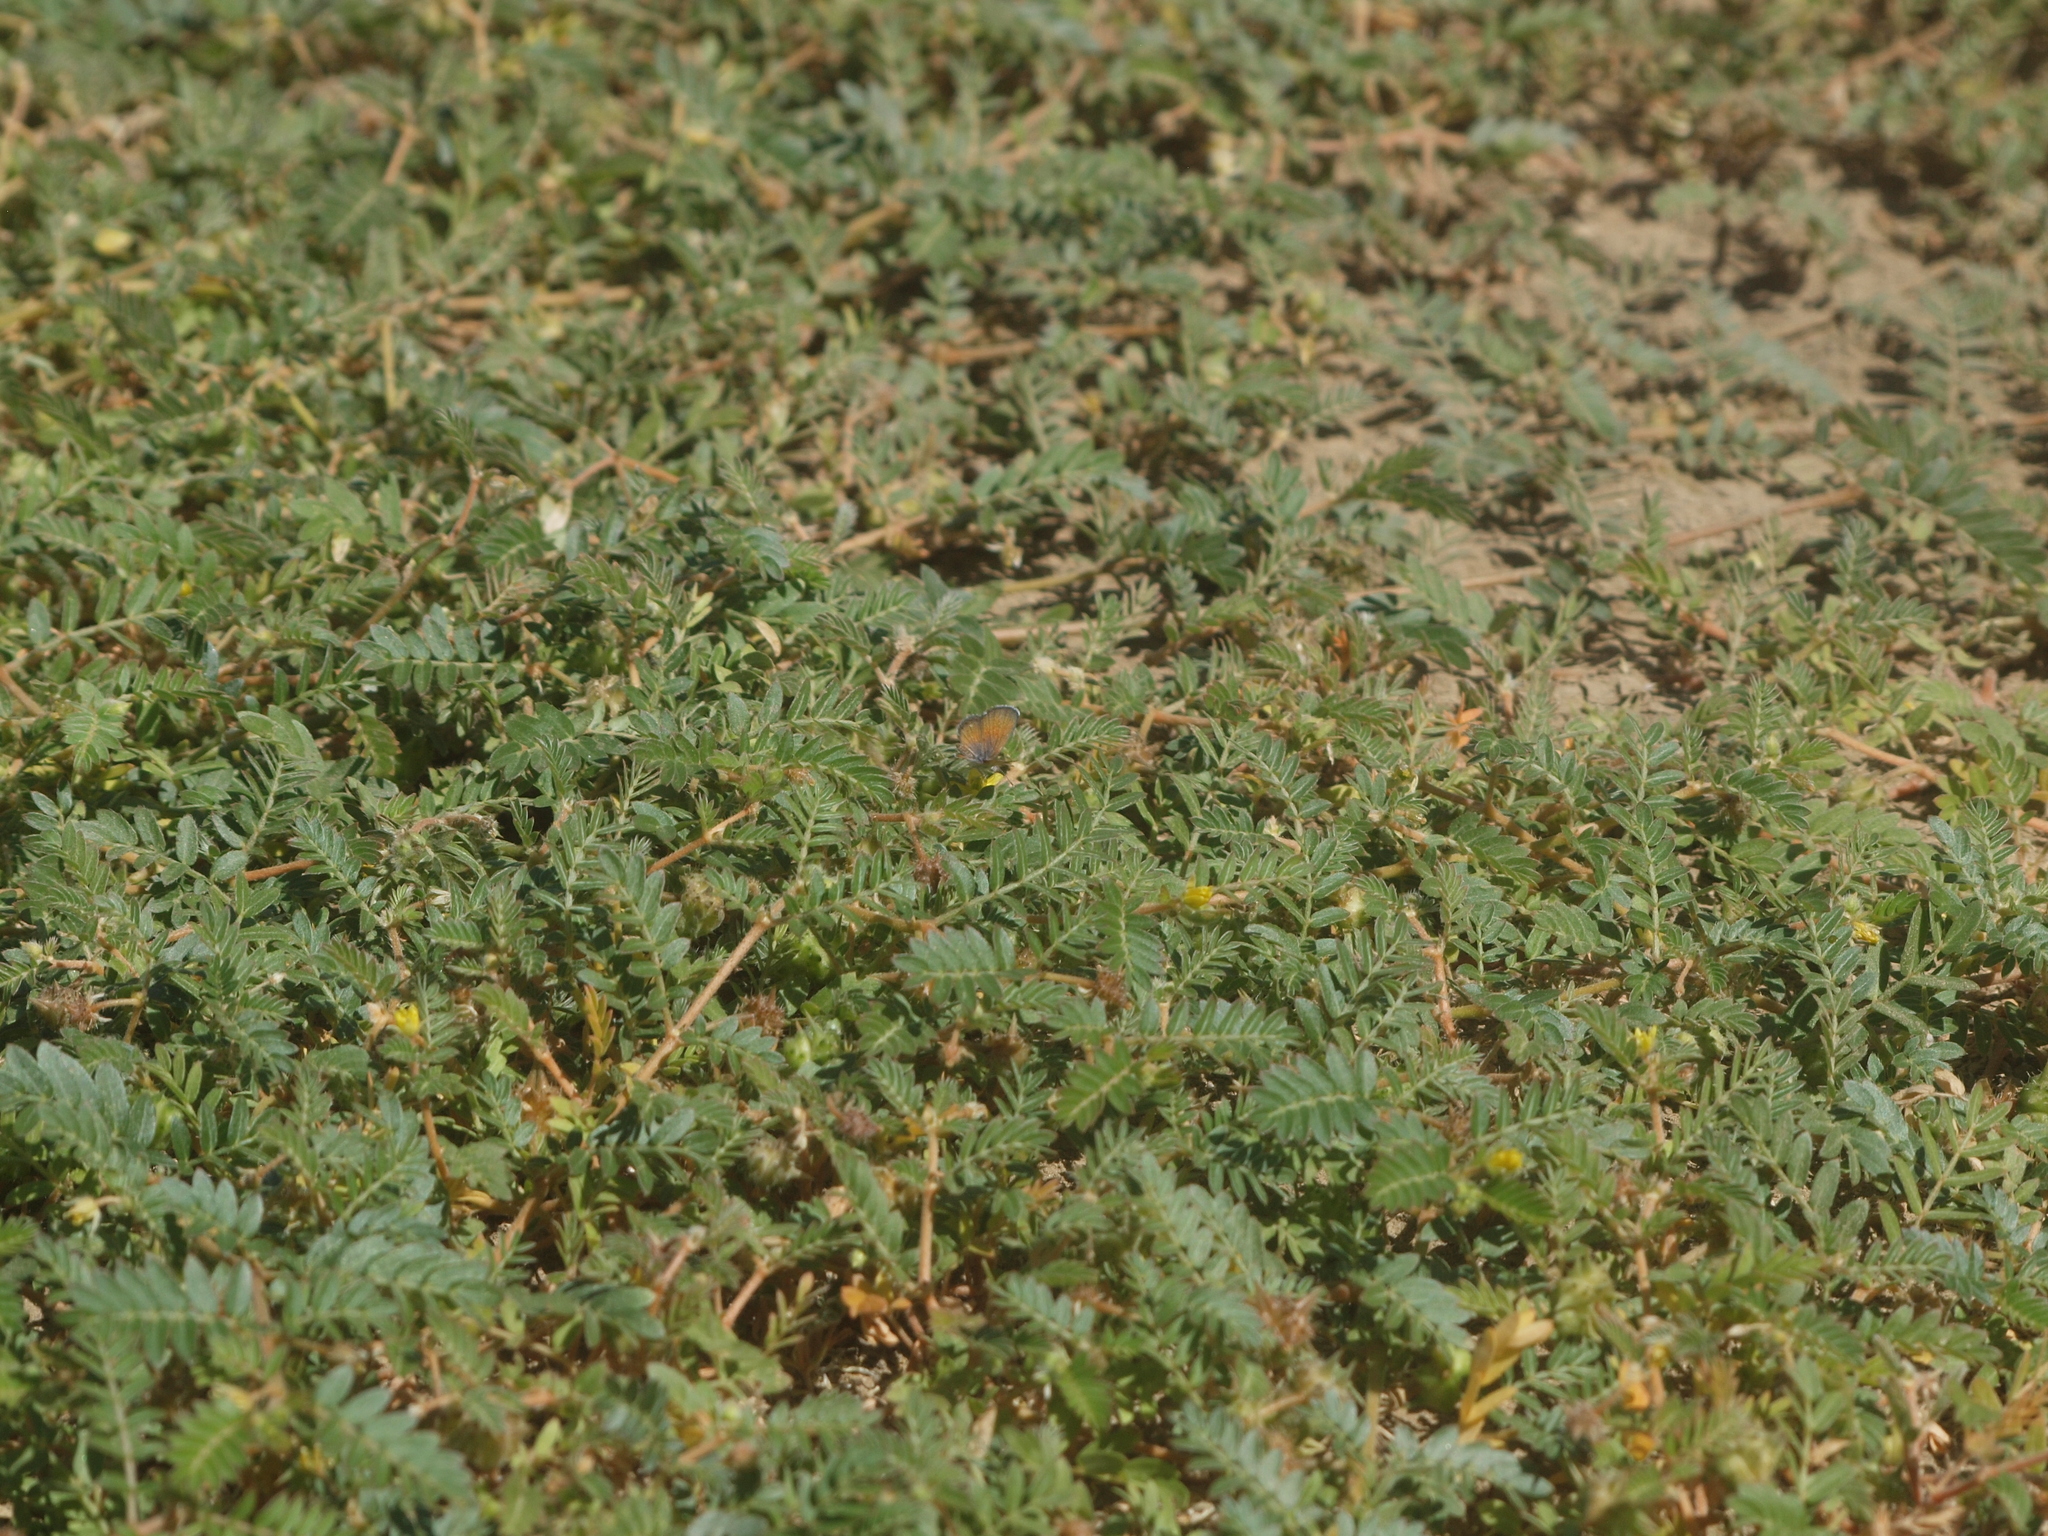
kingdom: Animalia
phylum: Arthropoda
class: Insecta
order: Lepidoptera
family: Lycaenidae
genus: Brephidium
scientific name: Brephidium exilis
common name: Pygmy blue
